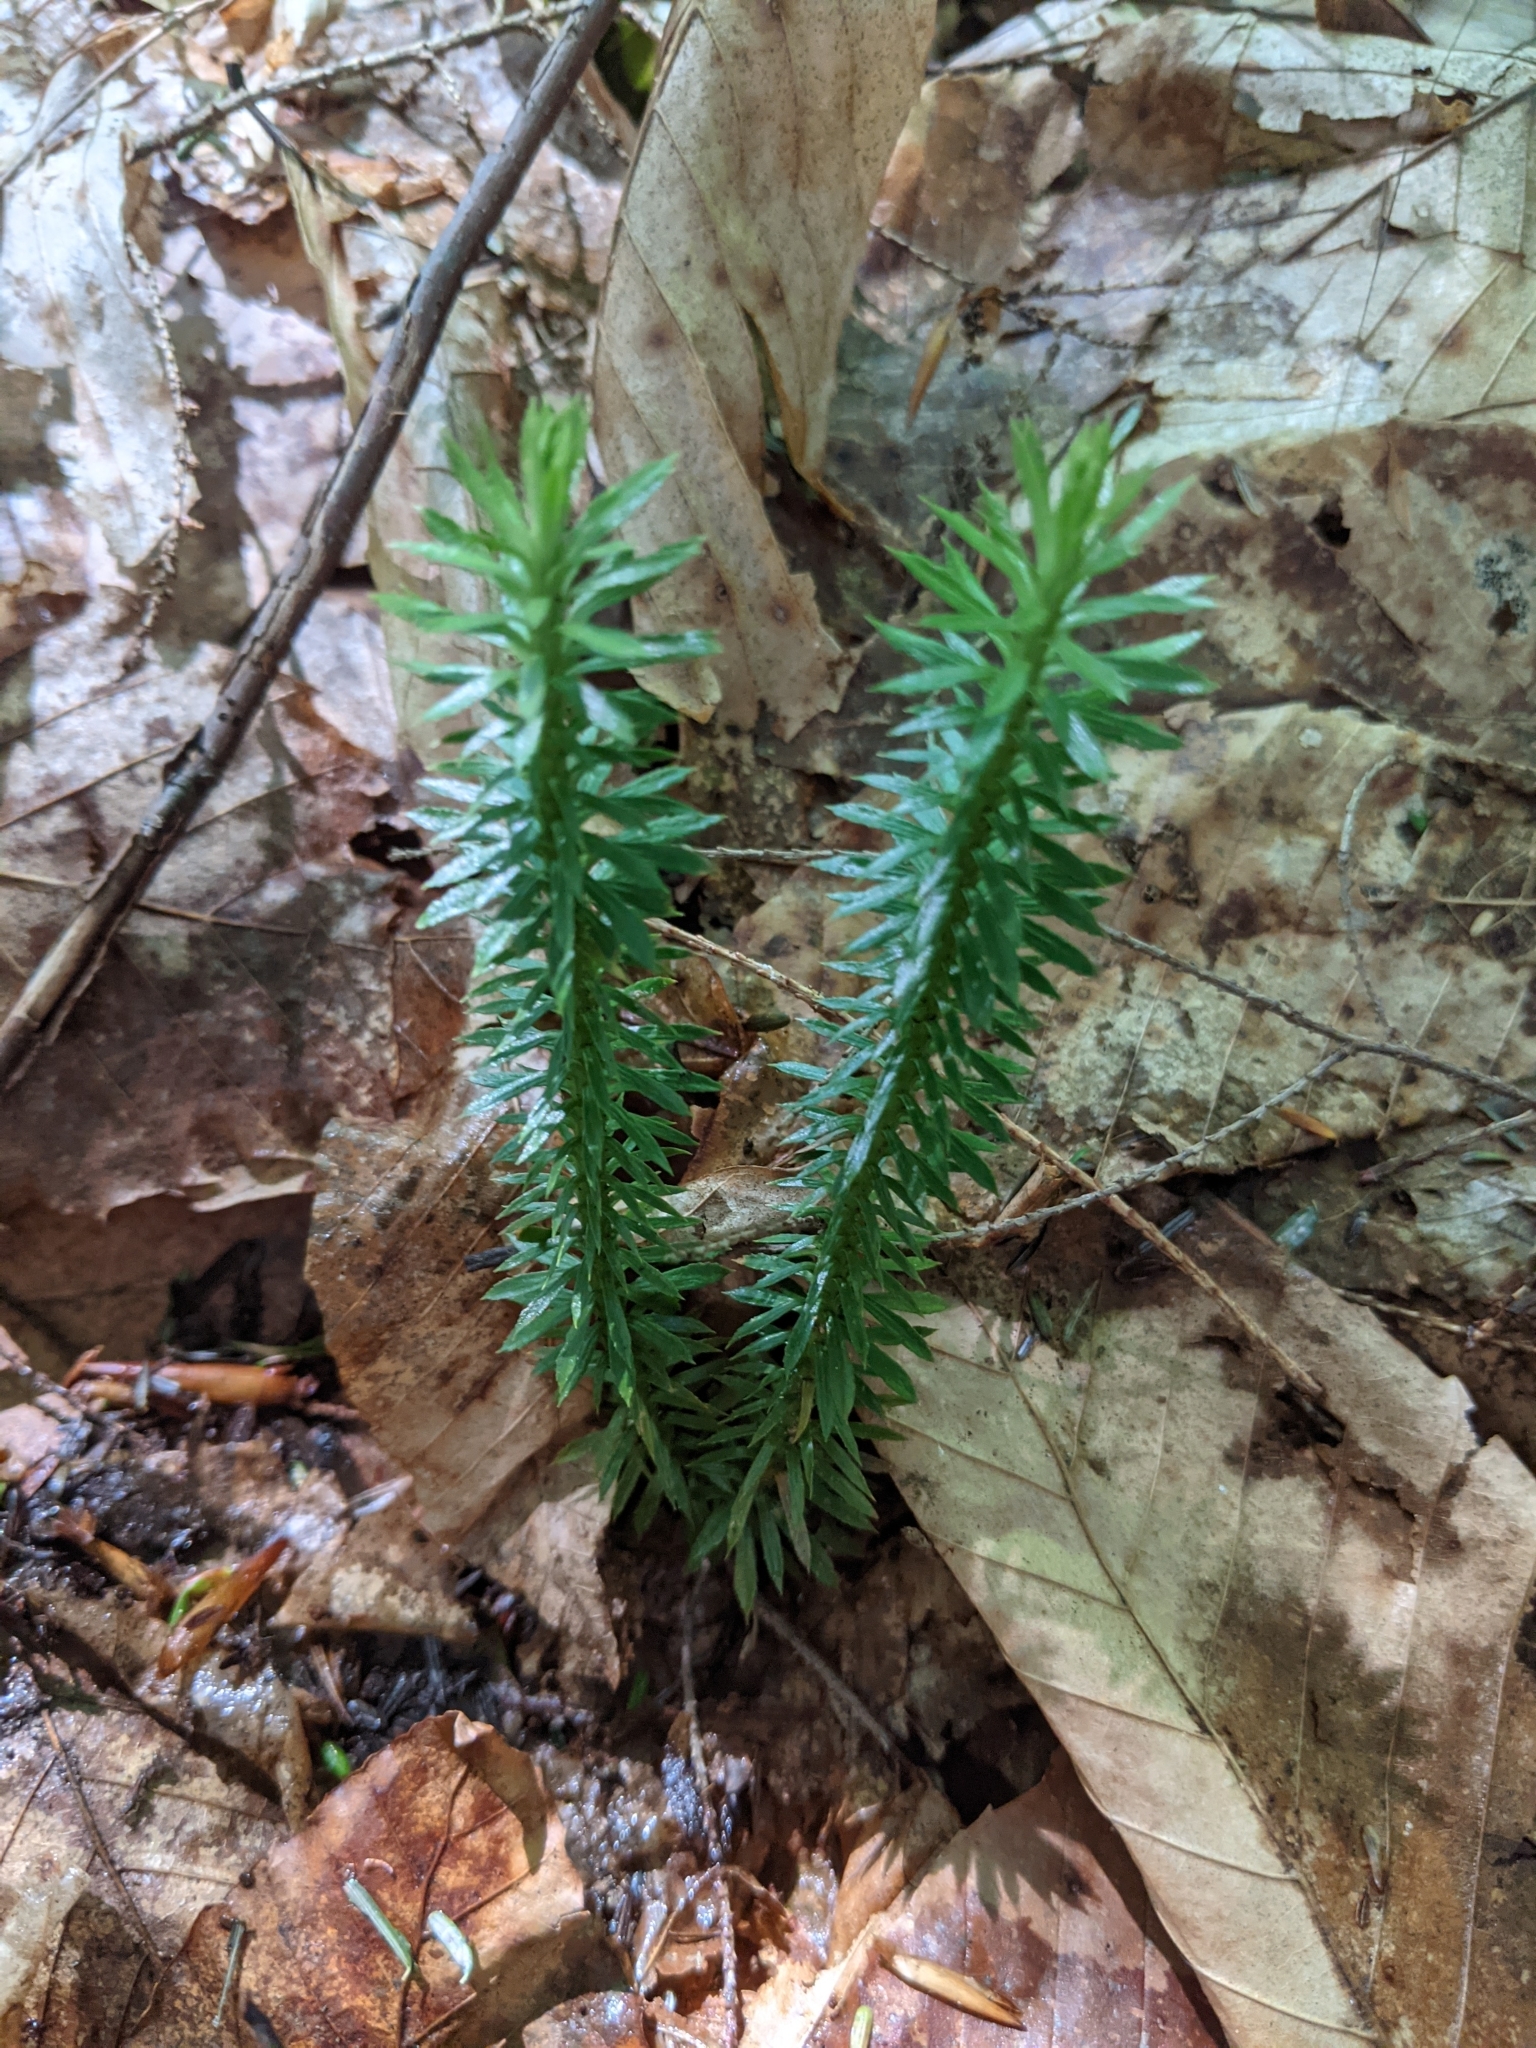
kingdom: Plantae
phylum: Tracheophyta
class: Lycopodiopsida
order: Lycopodiales
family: Lycopodiaceae
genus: Huperzia
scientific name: Huperzia lucidula
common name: Shining clubmoss
